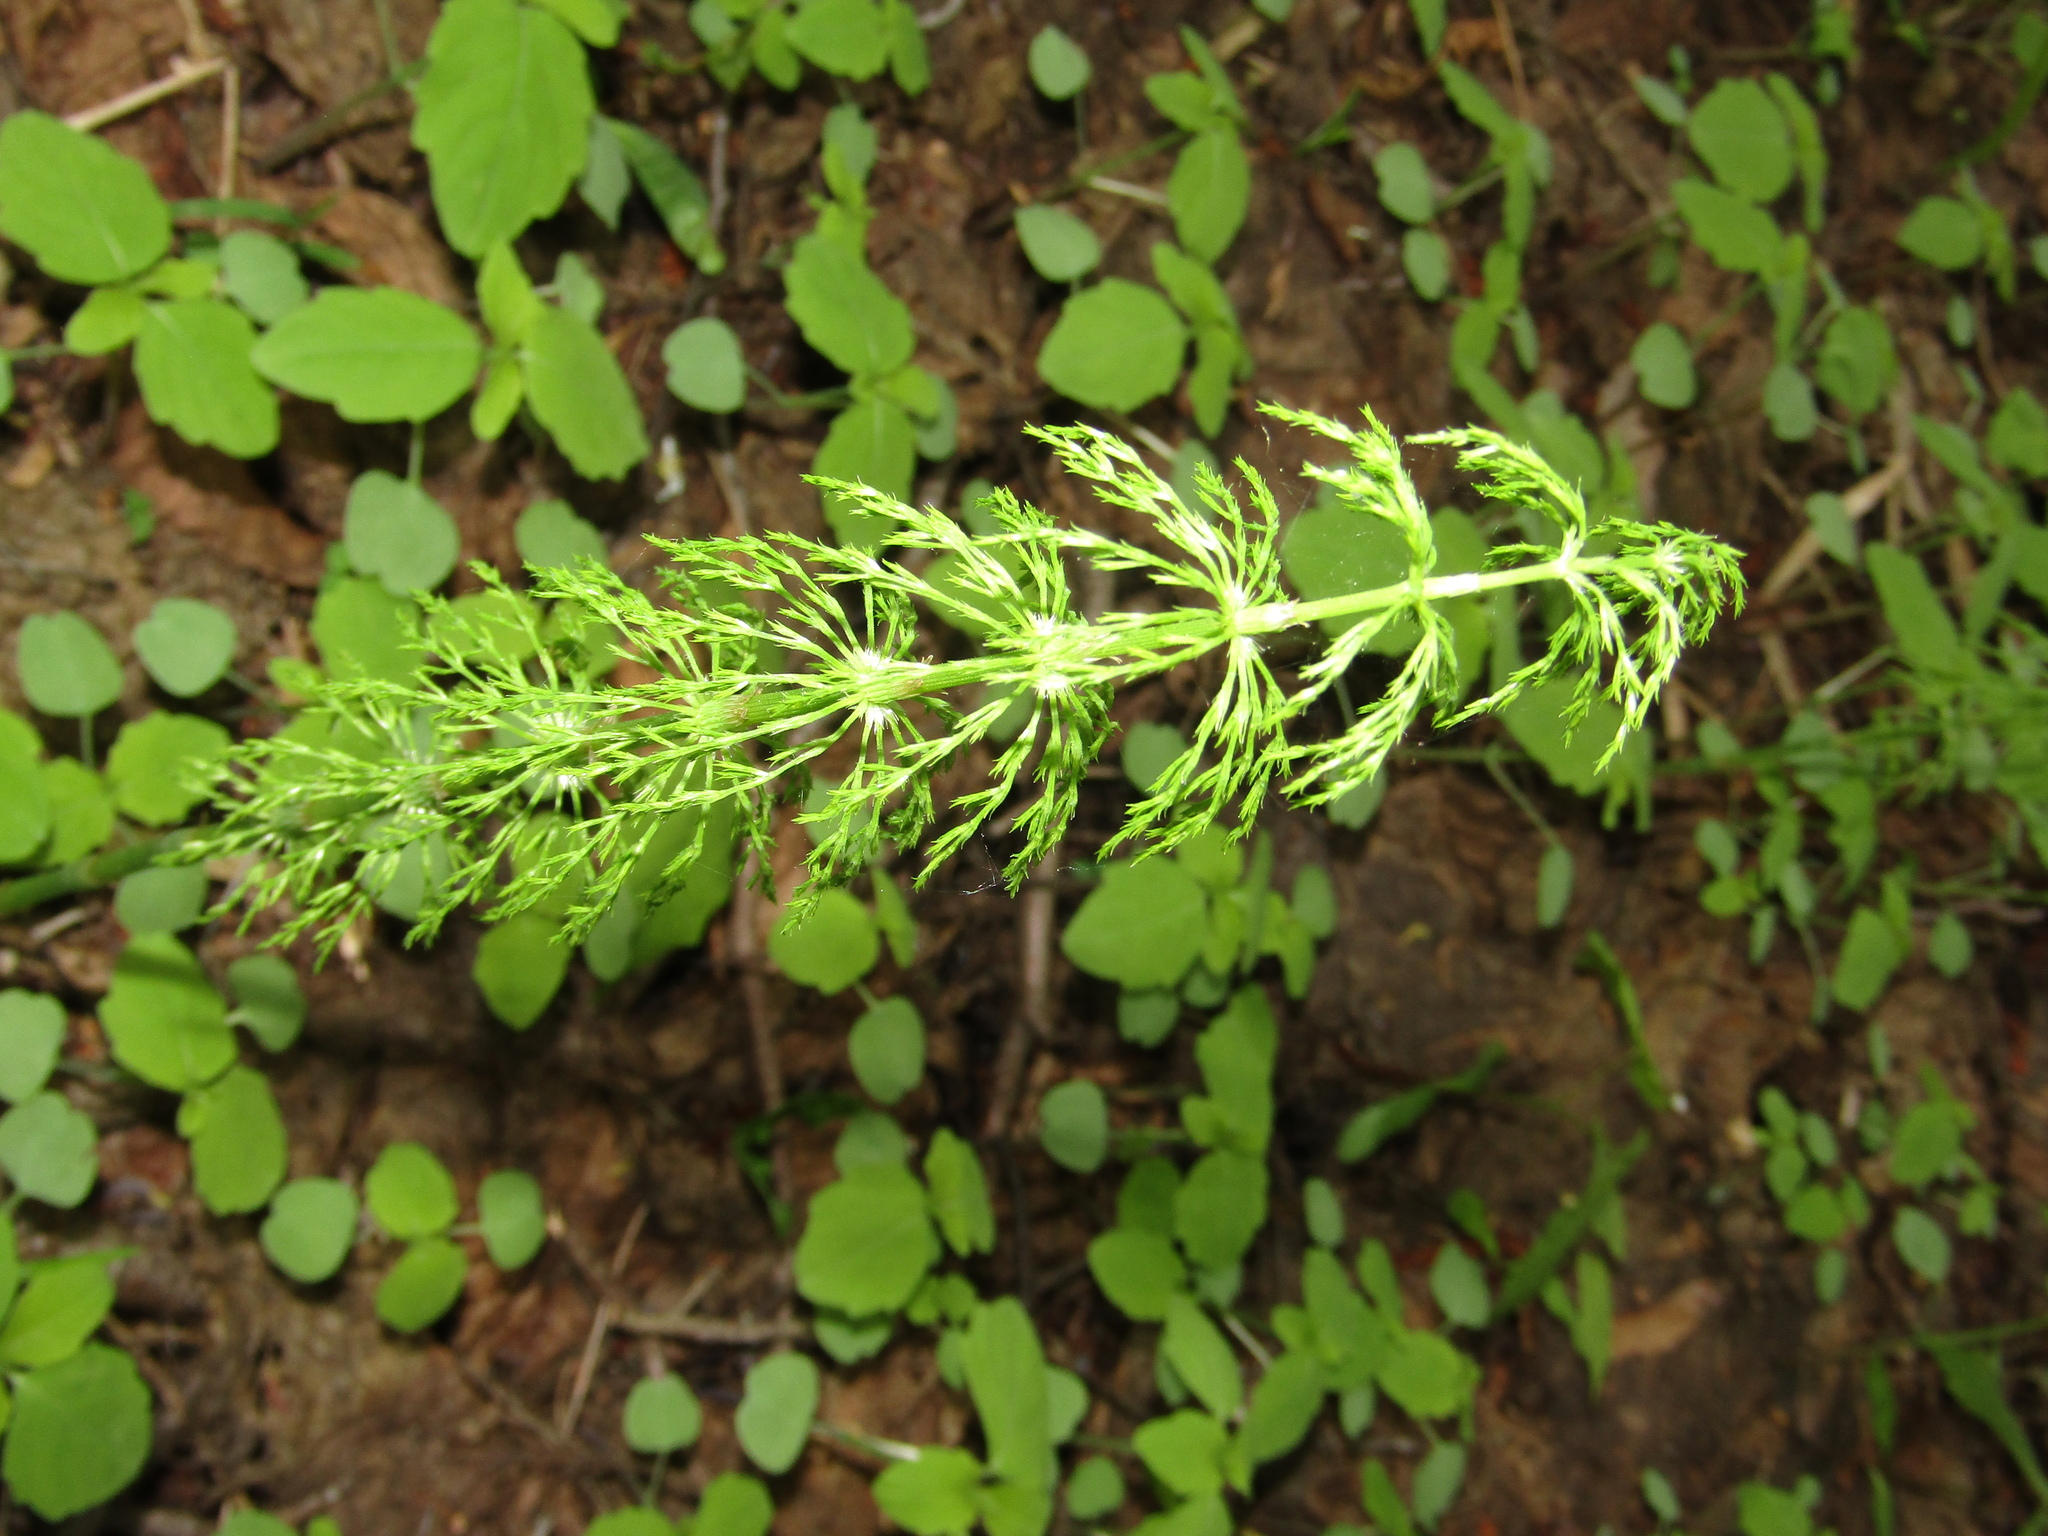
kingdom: Plantae
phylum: Tracheophyta
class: Polypodiopsida
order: Equisetales
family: Equisetaceae
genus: Equisetum
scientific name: Equisetum sylvaticum
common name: Wood horsetail
